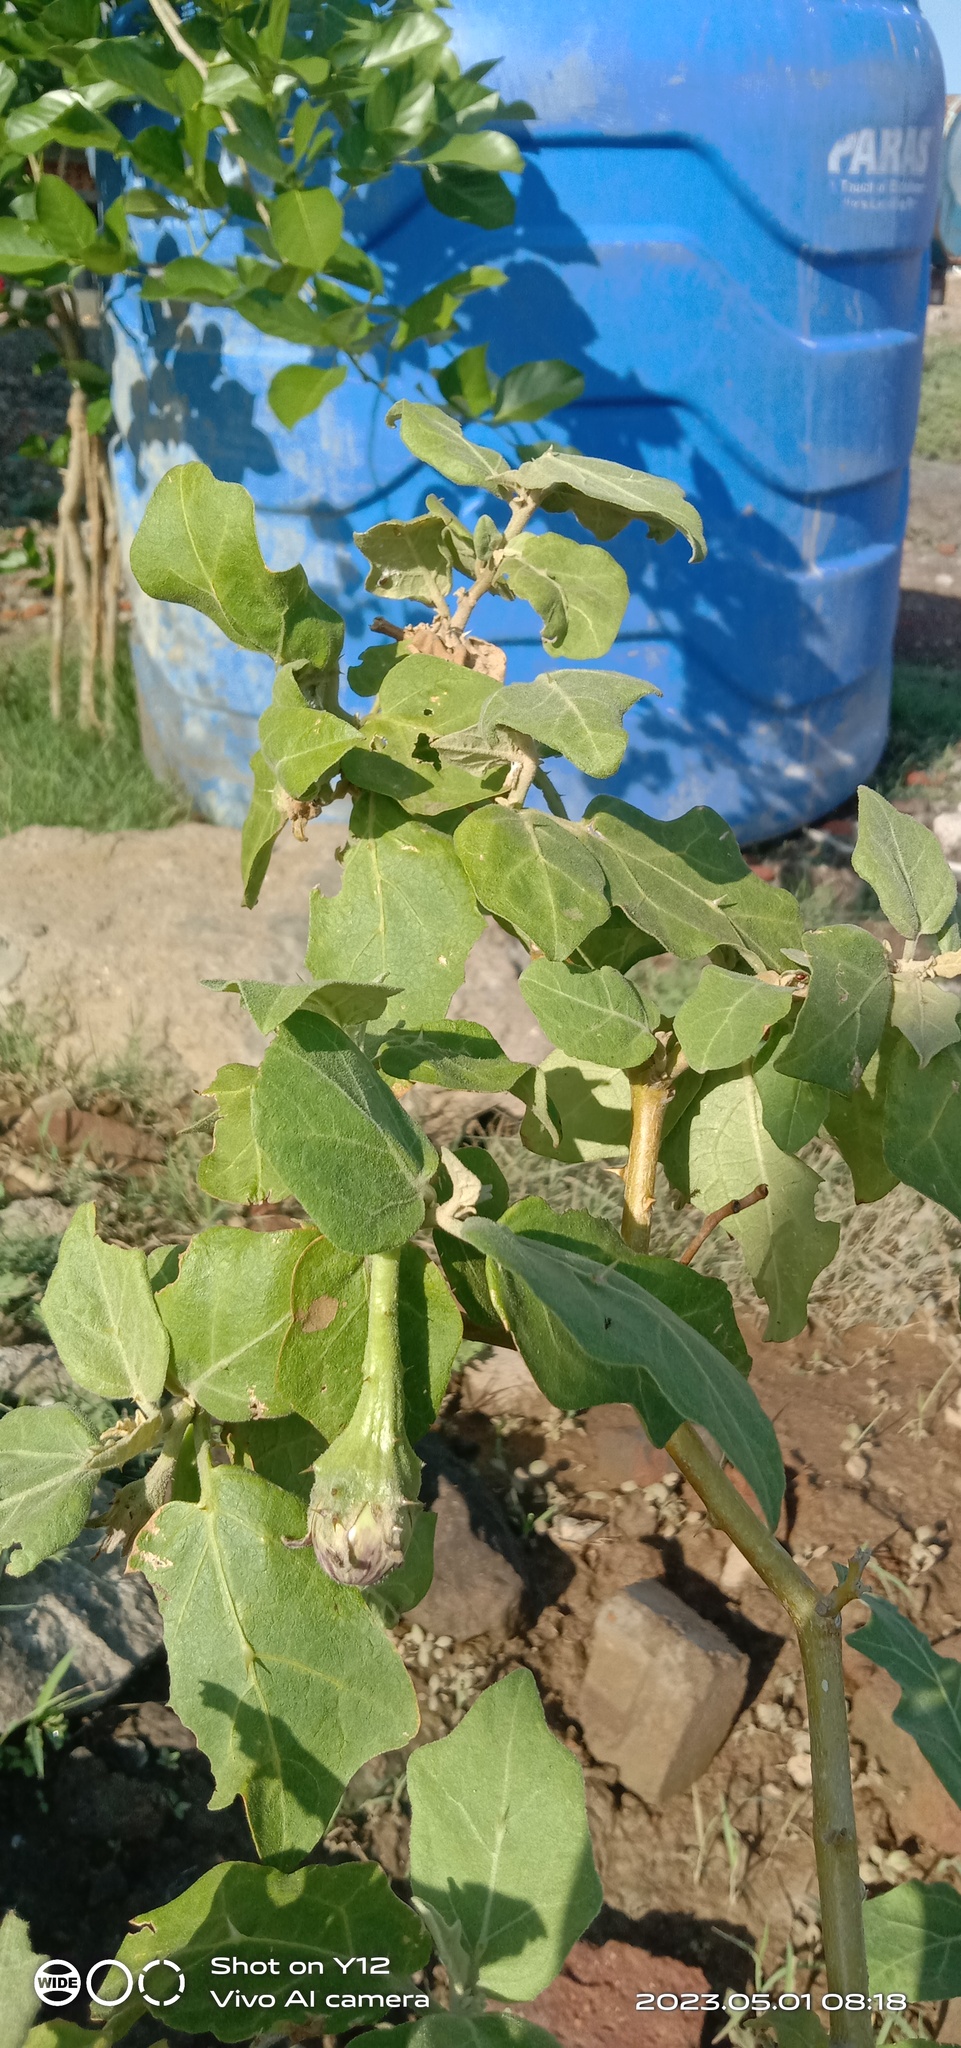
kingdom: Plantae
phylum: Tracheophyta
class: Magnoliopsida
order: Solanales
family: Solanaceae
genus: Solanum
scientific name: Solanum melongena
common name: Eggplant
